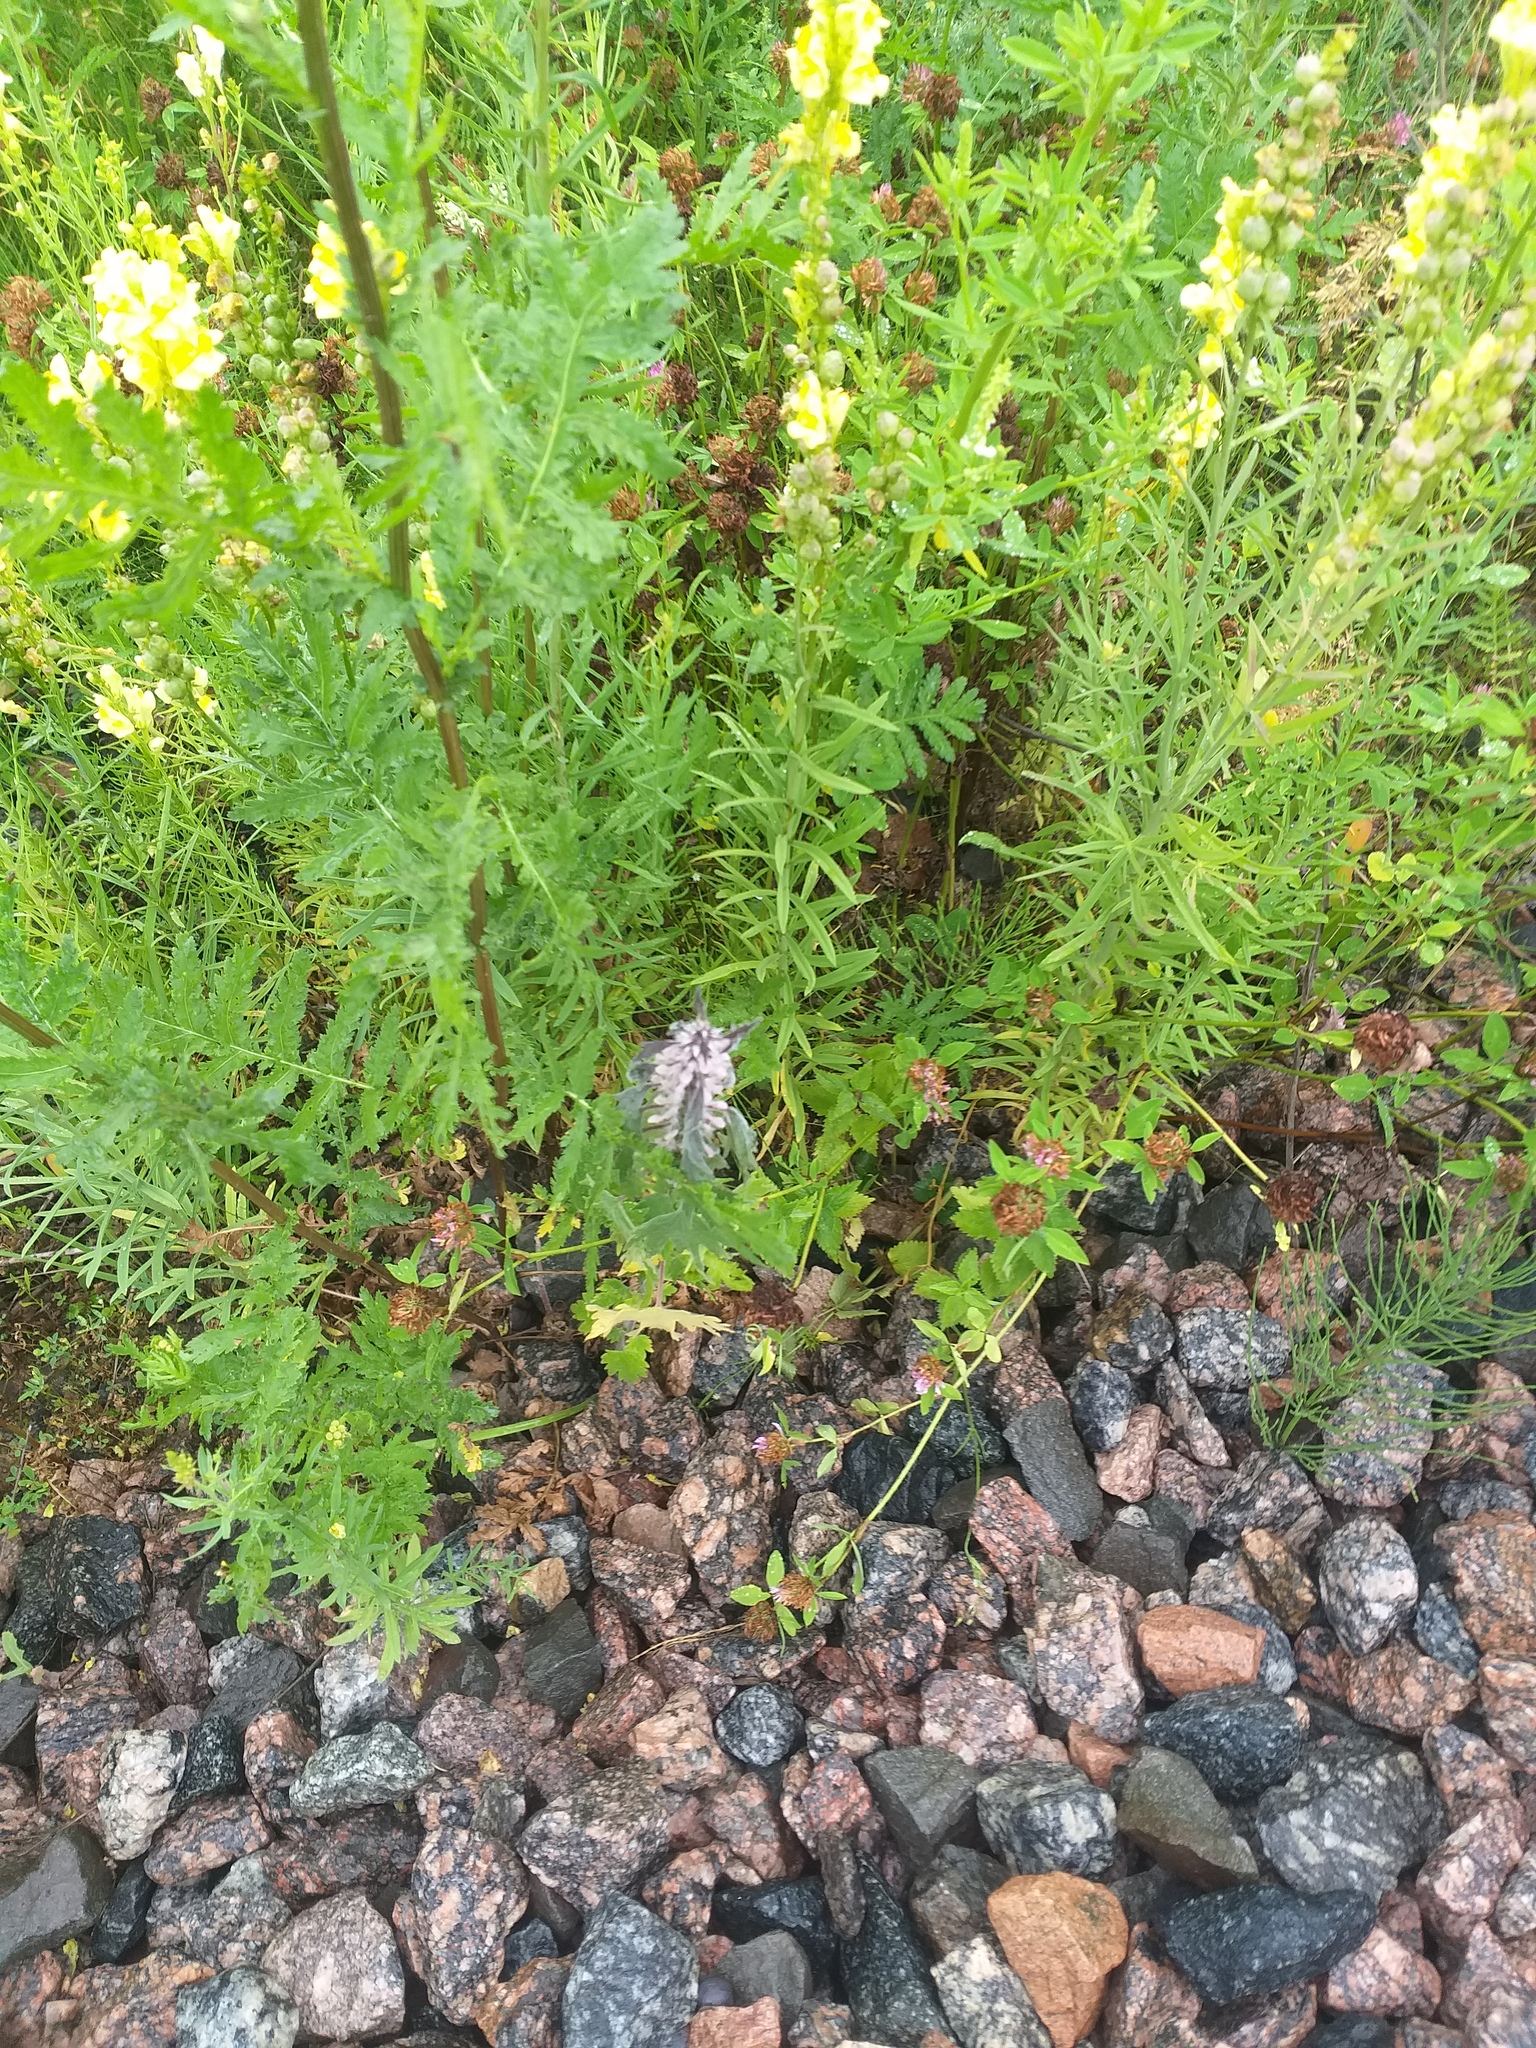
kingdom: Plantae
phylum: Tracheophyta
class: Magnoliopsida
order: Lamiales
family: Lamiaceae
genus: Leonurus
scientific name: Leonurus quinquelobatus
